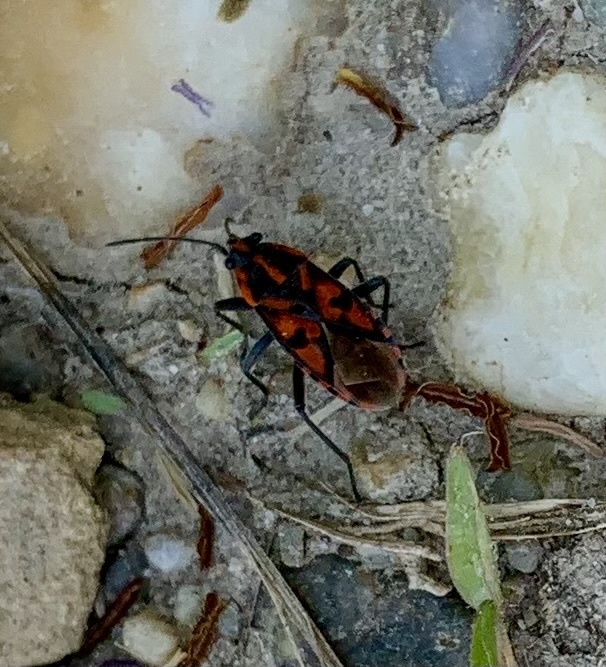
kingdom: Animalia
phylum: Arthropoda
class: Insecta
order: Hemiptera
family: Lygaeidae
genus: Spilostethus
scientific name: Spilostethus saxatilis
